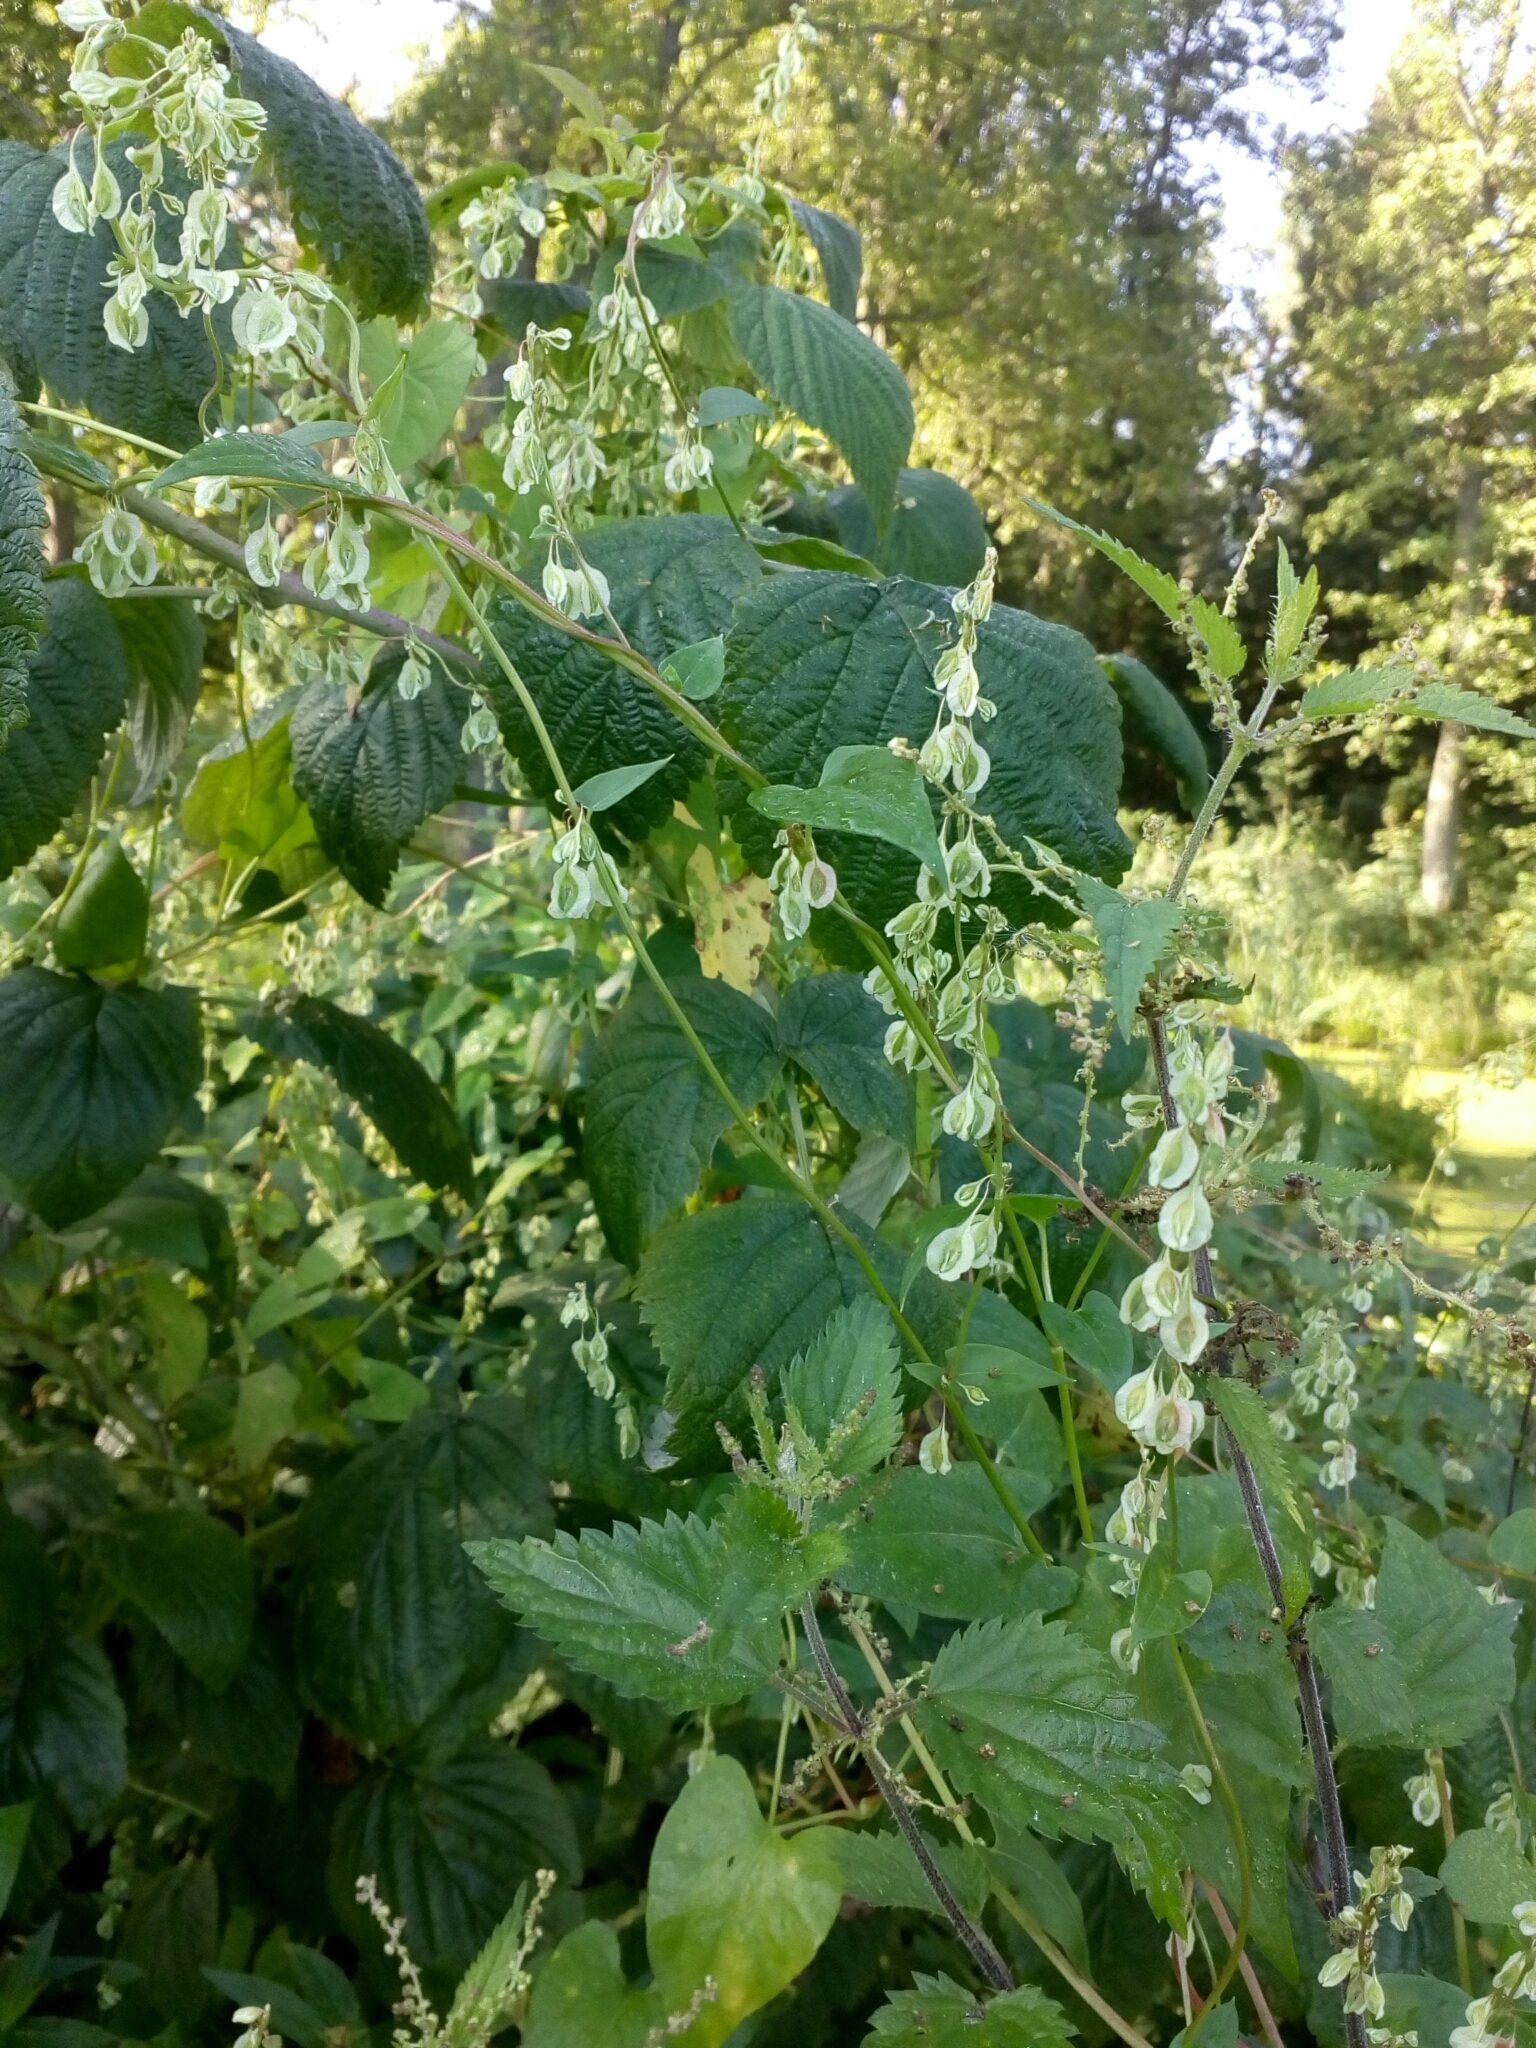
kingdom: Plantae
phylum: Tracheophyta
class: Magnoliopsida
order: Caryophyllales
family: Polygonaceae
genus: Fallopia
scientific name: Fallopia dumetorum
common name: Copse-bindweed
